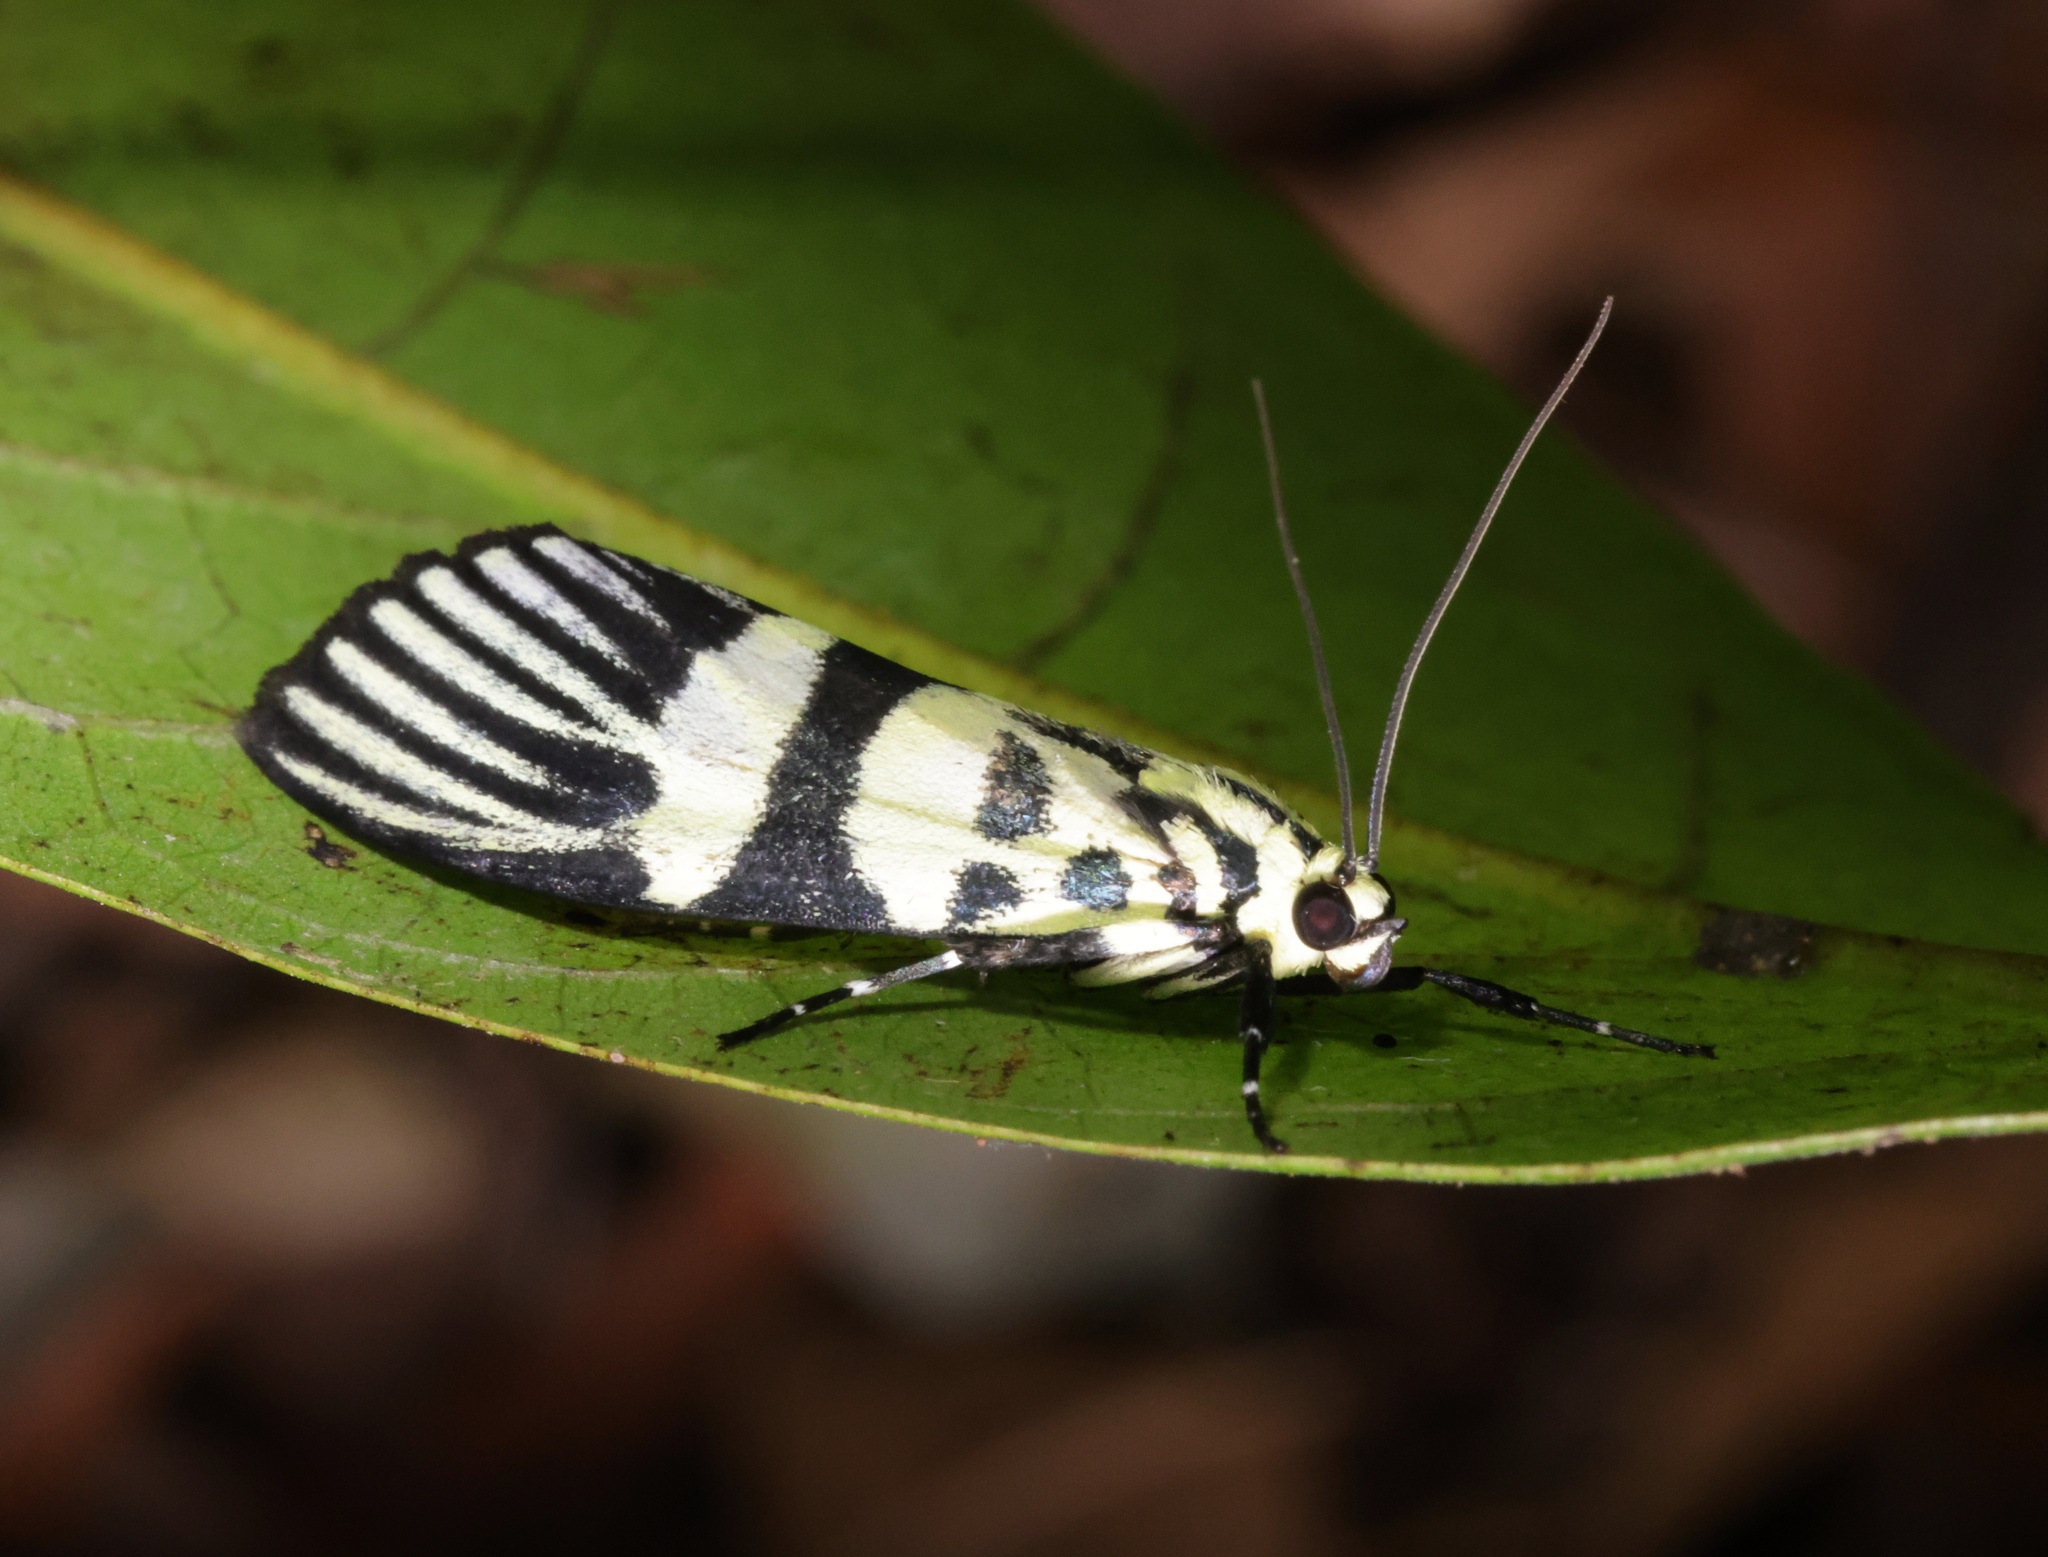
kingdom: Animalia
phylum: Arthropoda
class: Insecta
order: Lepidoptera
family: Crambidae
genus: Heortia
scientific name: Heortia vitessoides
